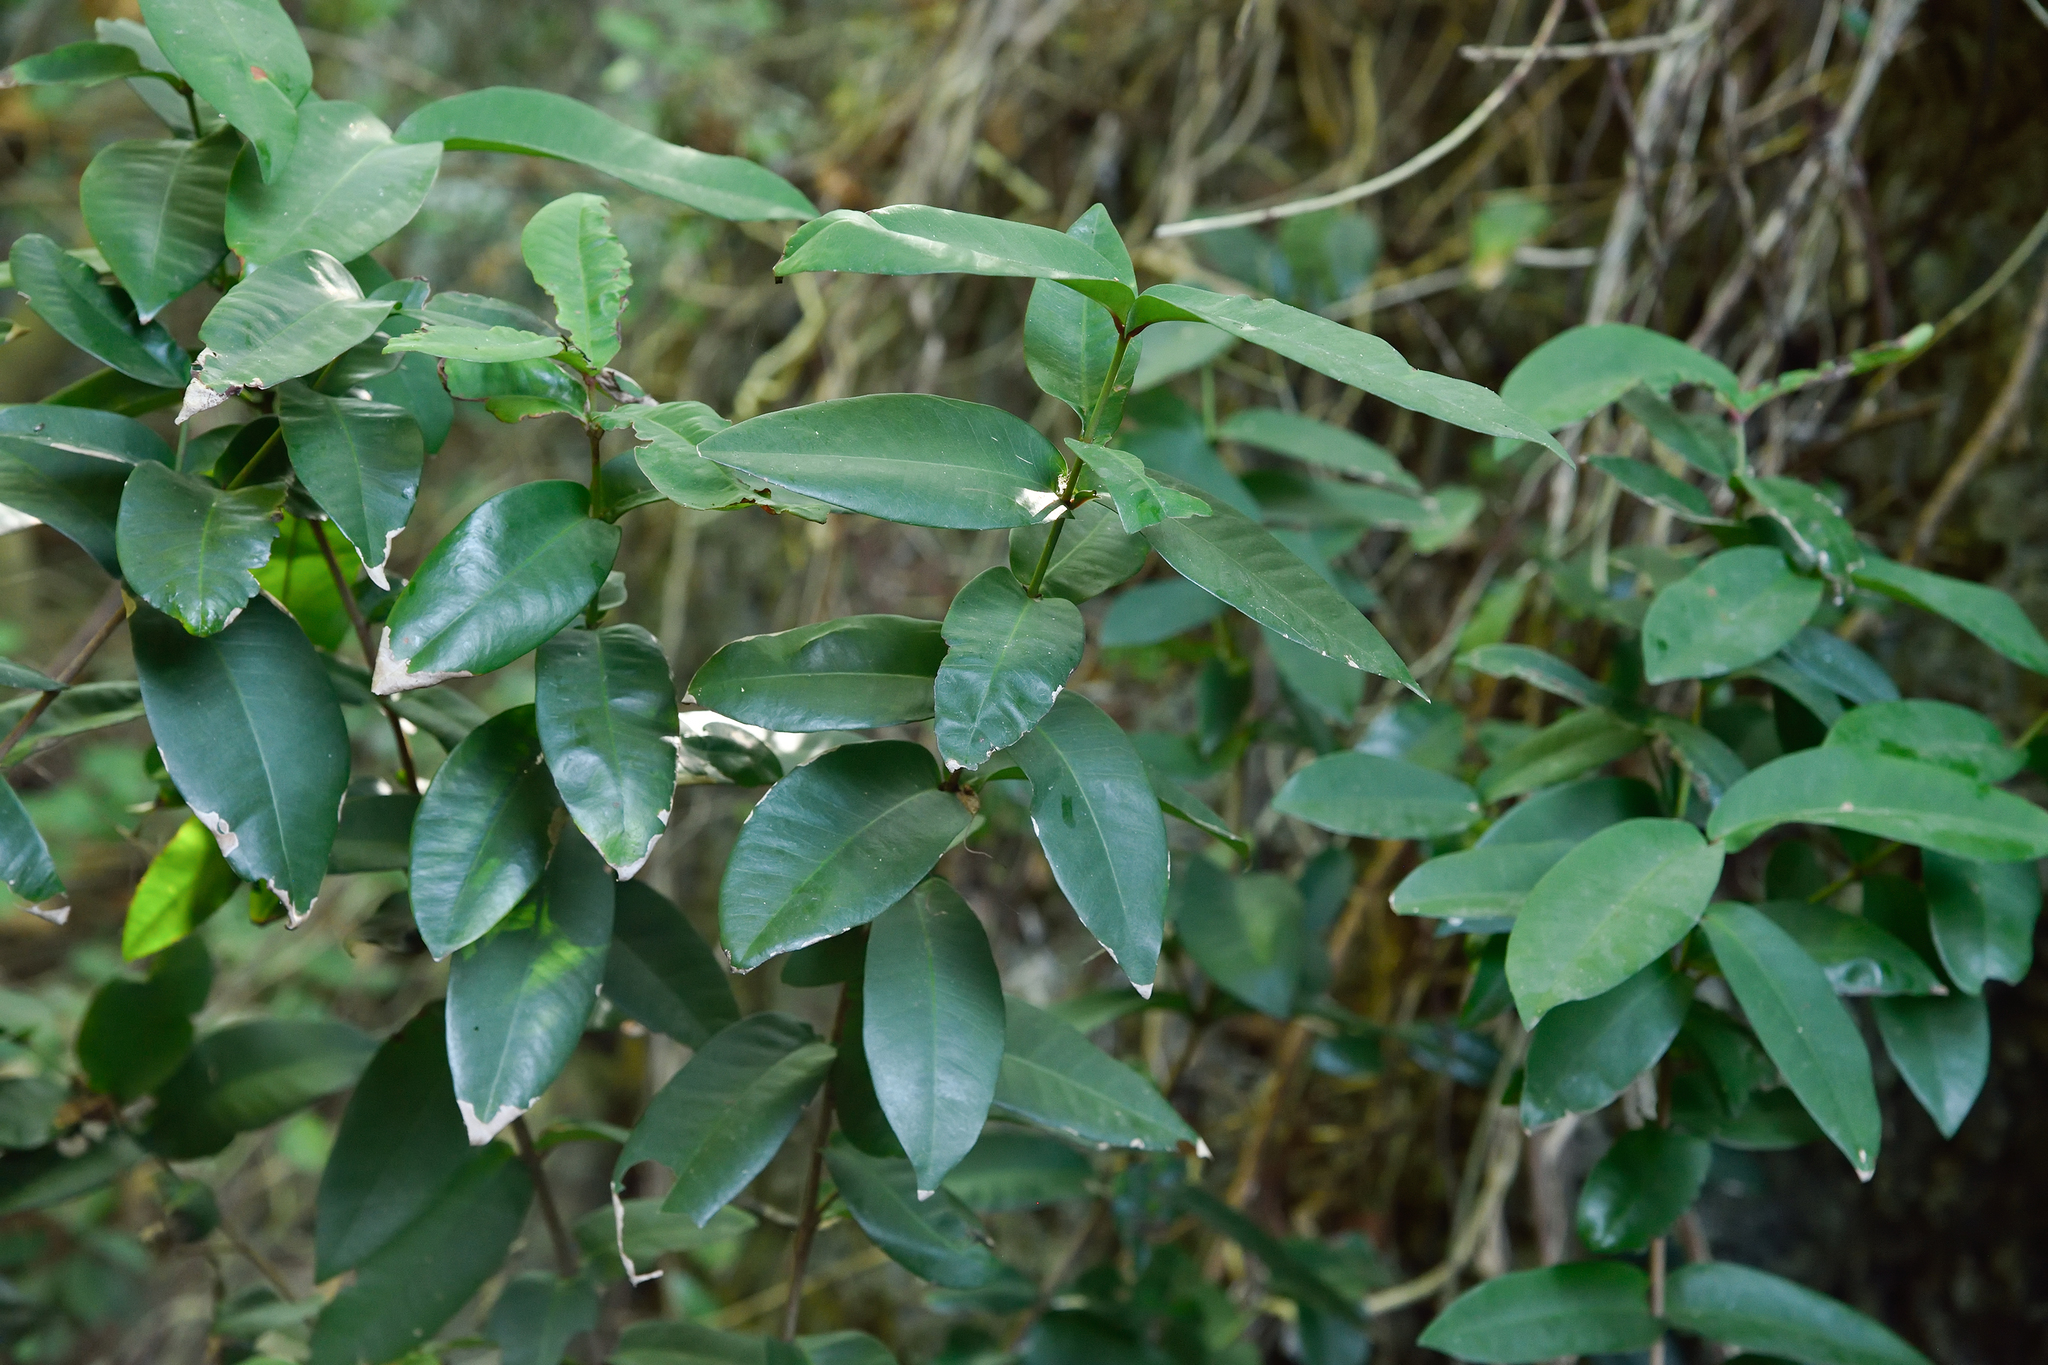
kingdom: Plantae
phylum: Tracheophyta
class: Magnoliopsida
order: Gentianales
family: Rubiaceae
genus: Ixora
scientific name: Ixora philippinensis
